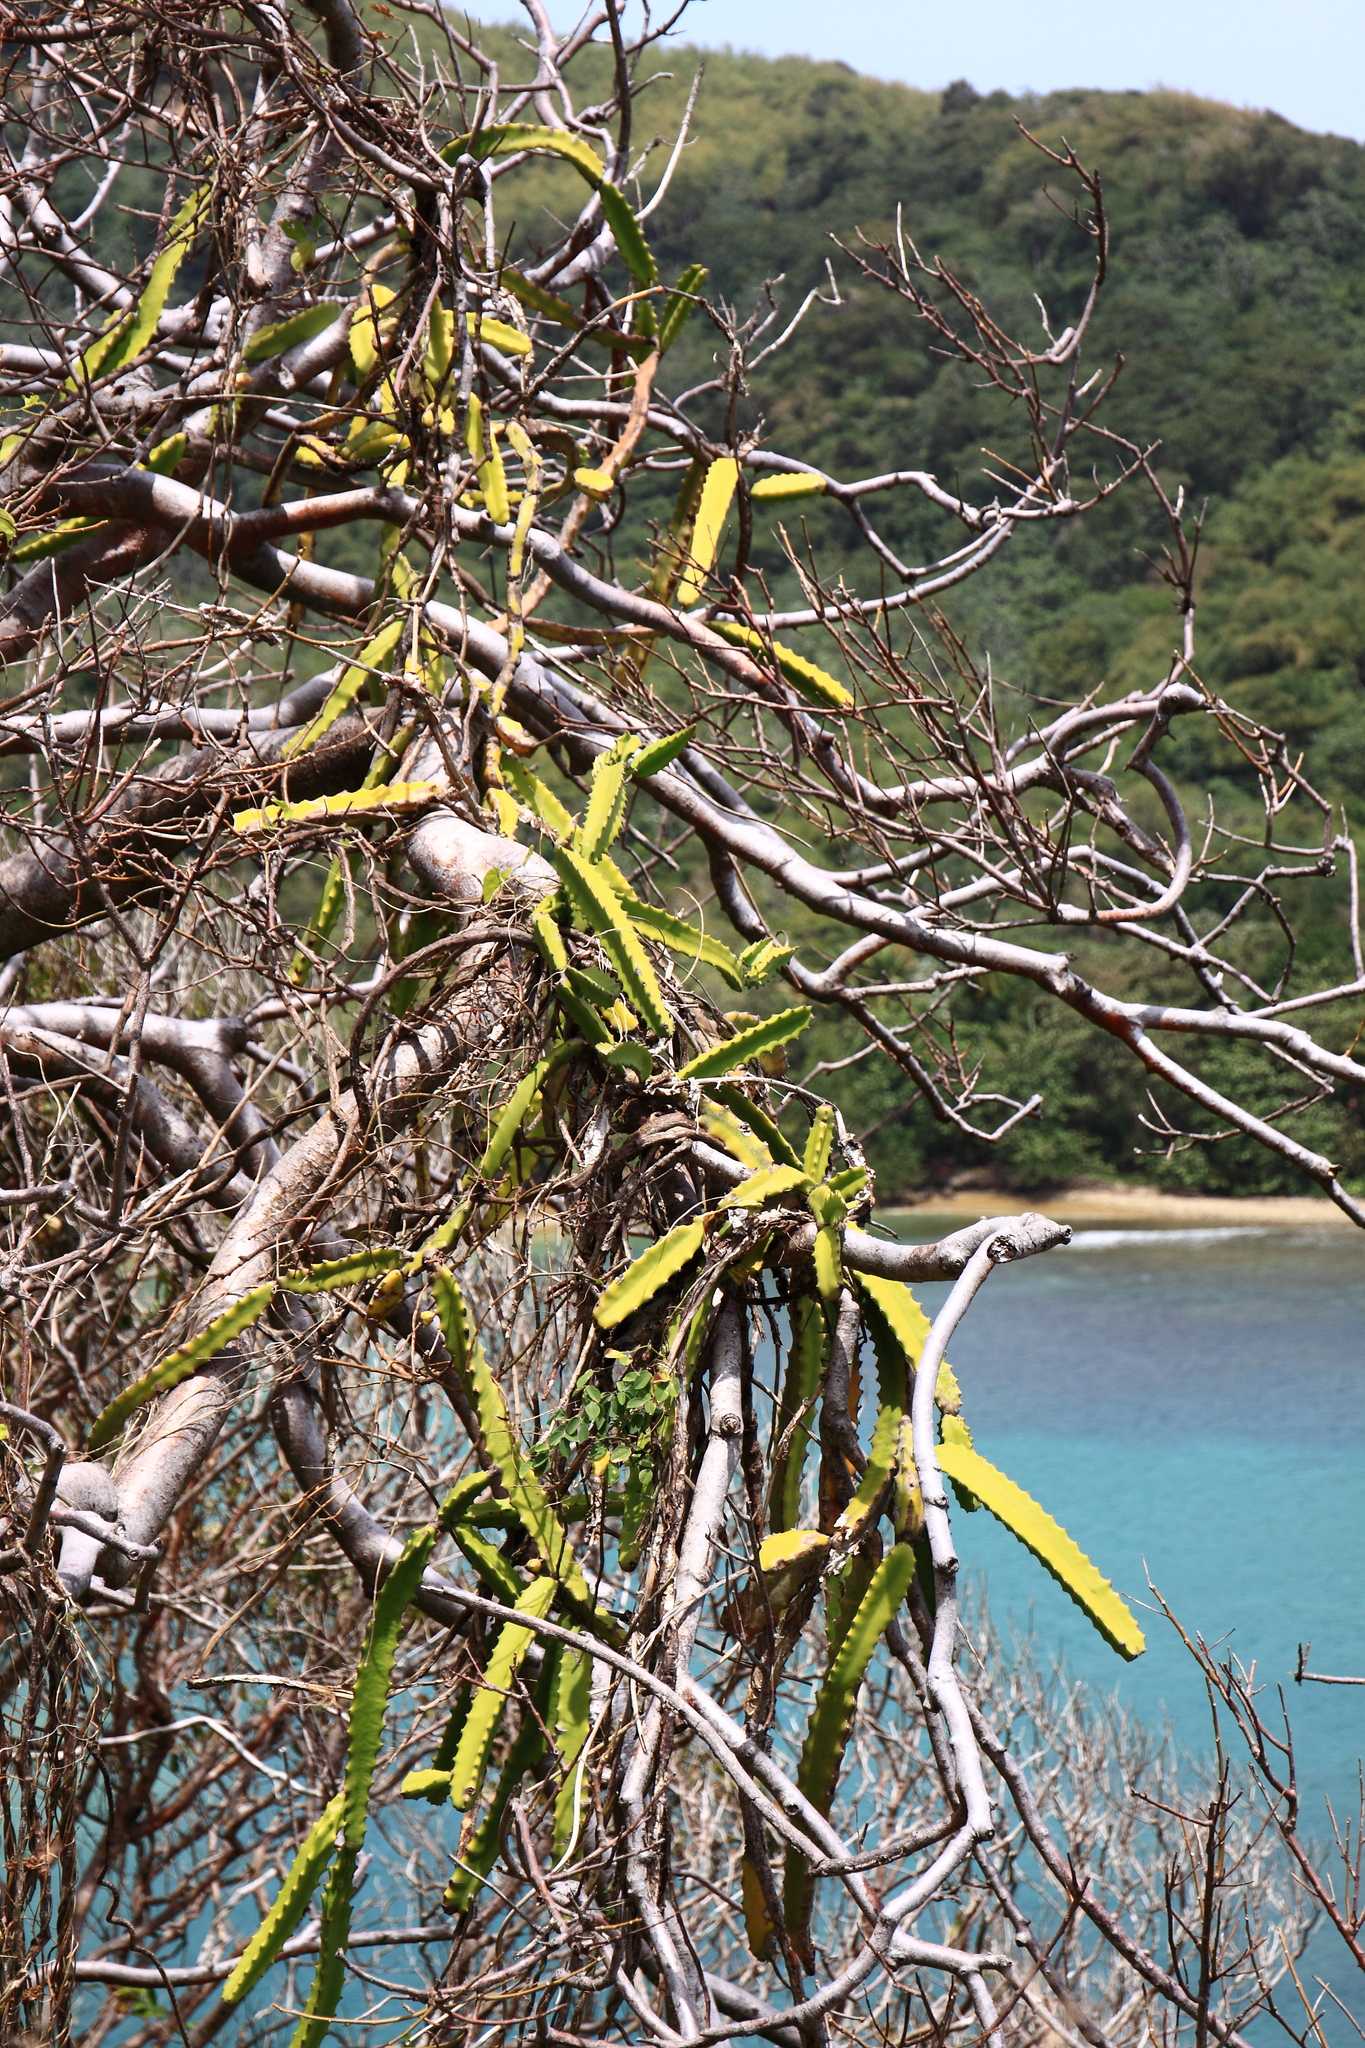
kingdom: Plantae
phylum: Tracheophyta
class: Magnoliopsida
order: Caryophyllales
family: Cactaceae
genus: Selenicereus
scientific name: Selenicereus undatus
